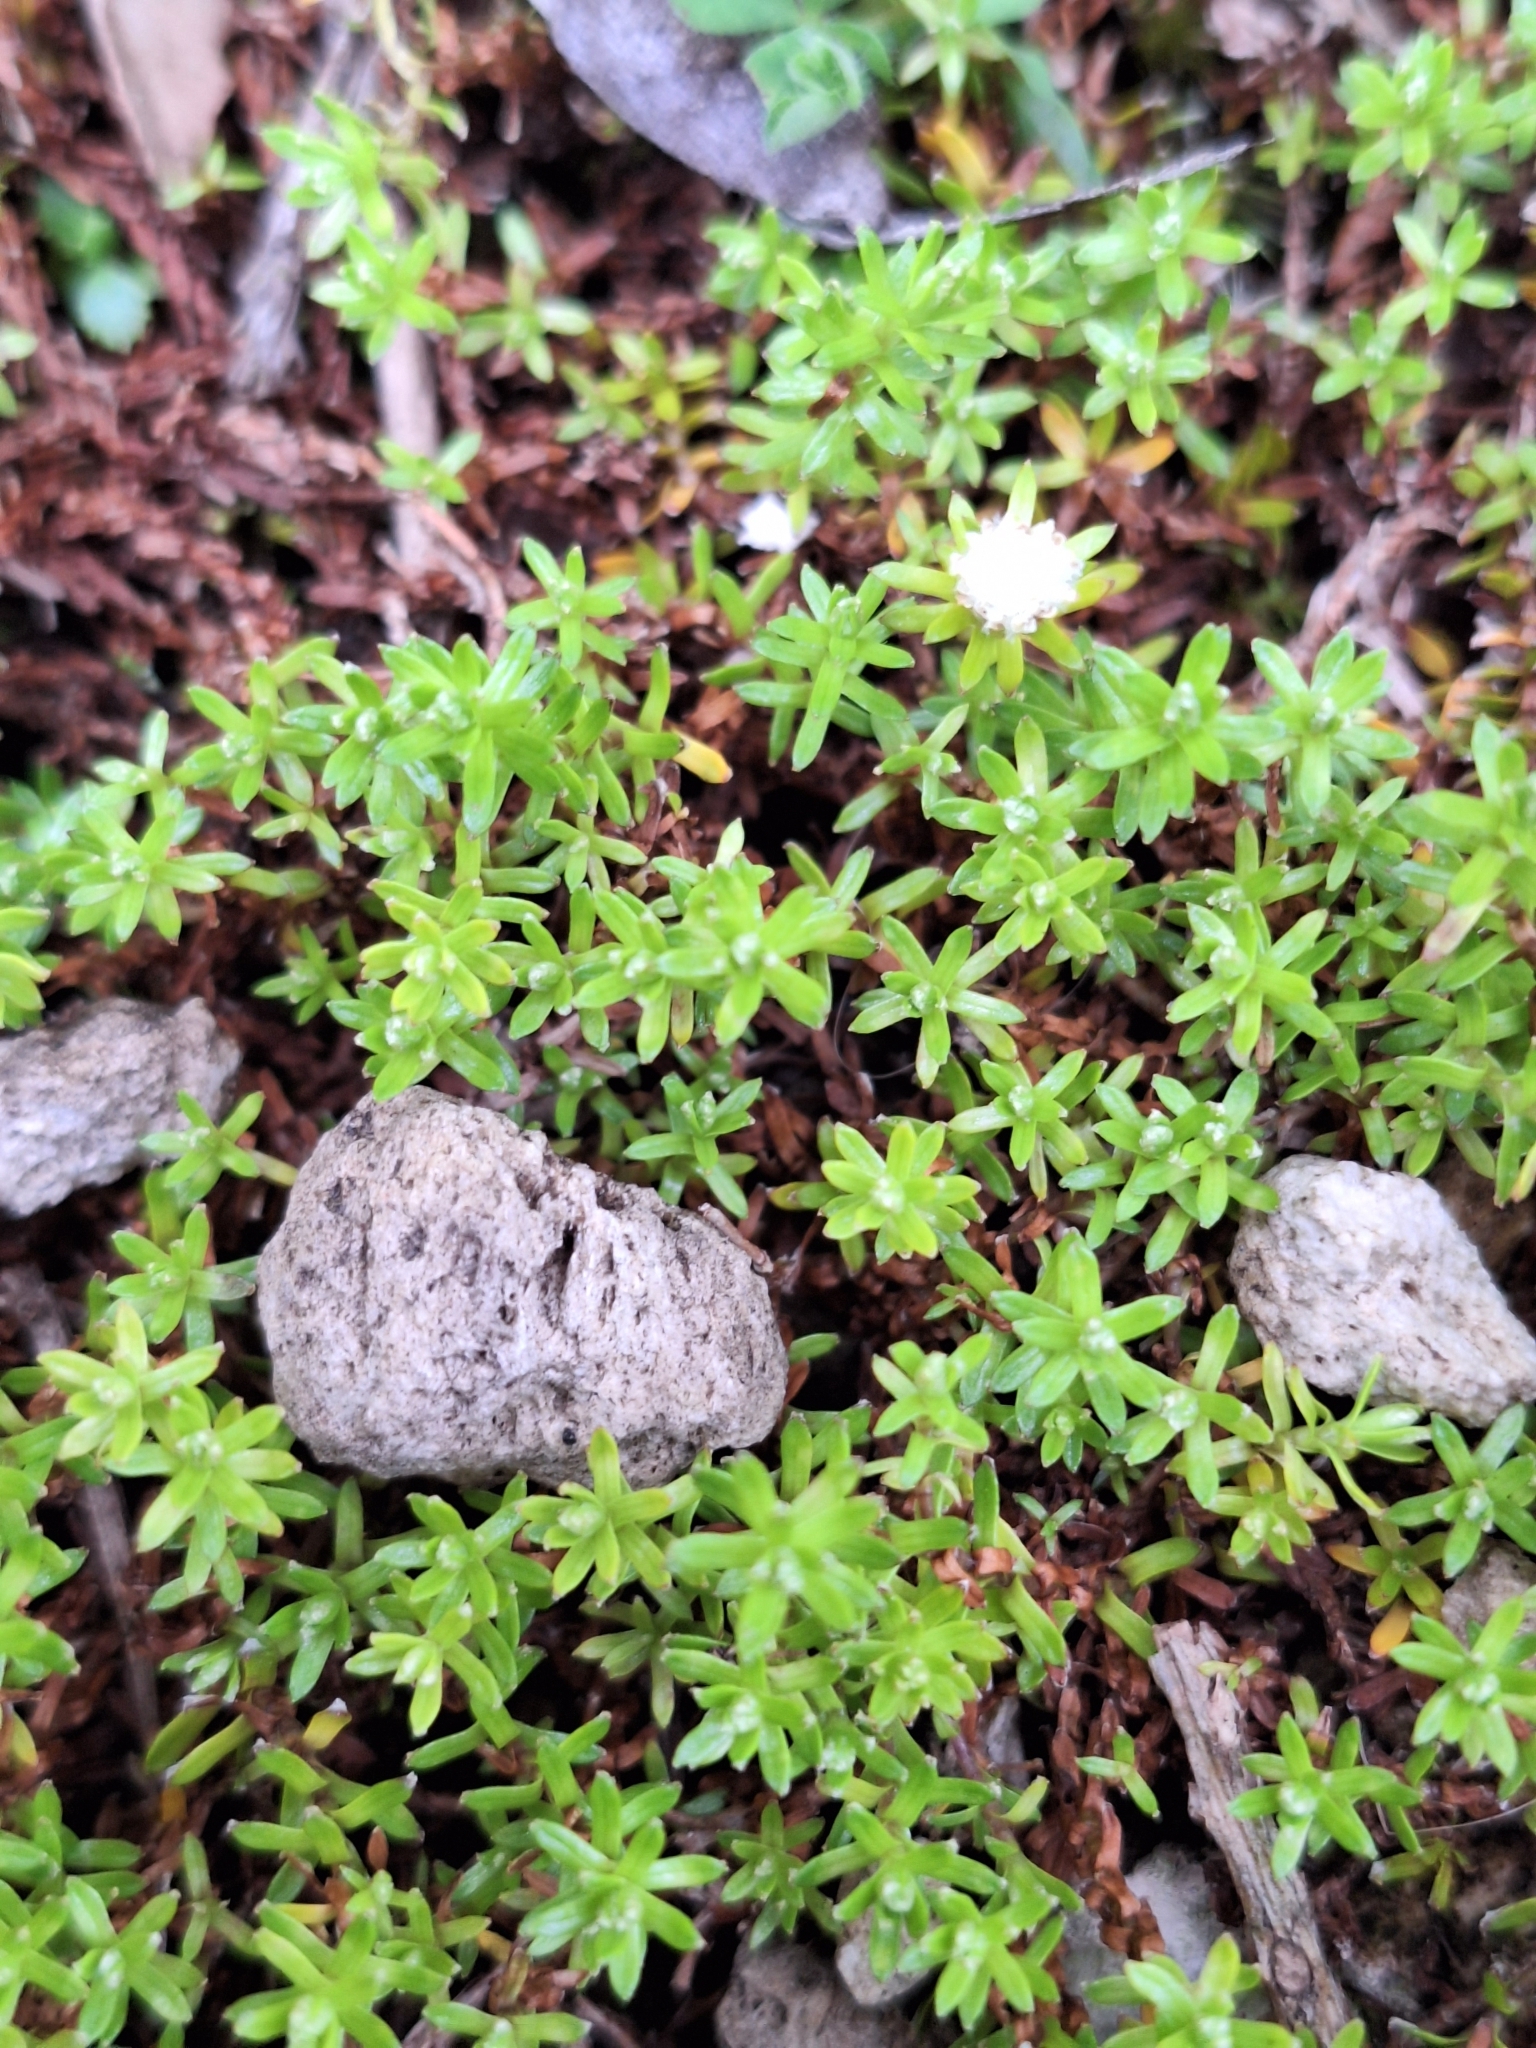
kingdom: Plantae
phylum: Tracheophyta
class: Magnoliopsida
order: Asterales
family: Asteraceae
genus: Raoulia
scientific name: Raoulia glabra
